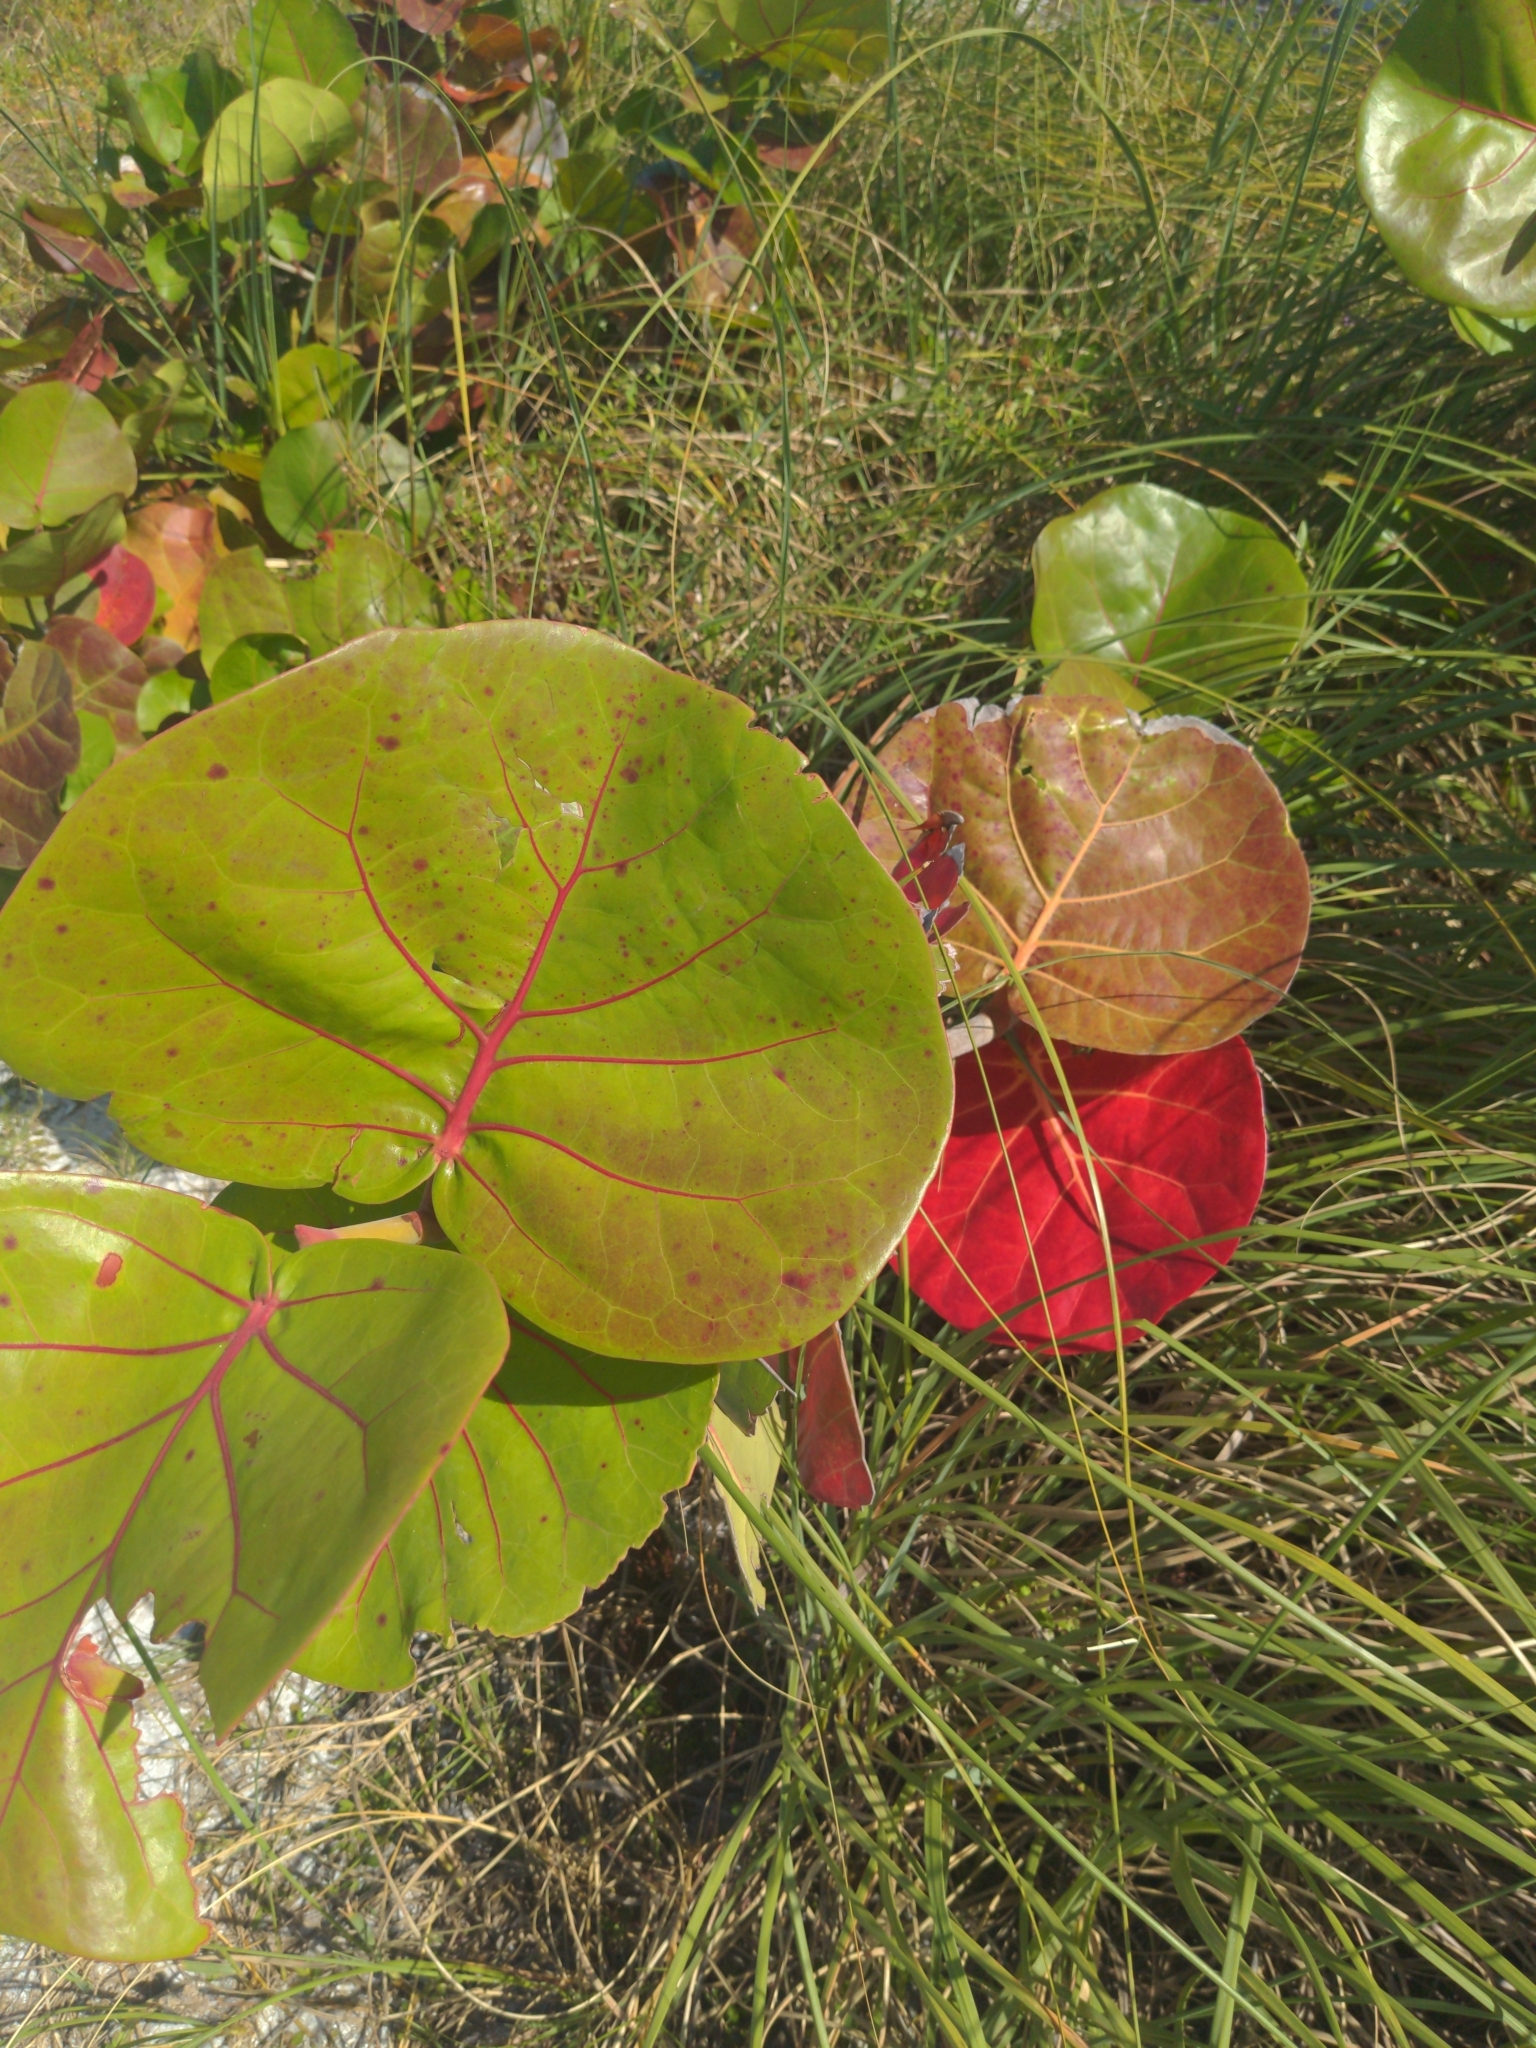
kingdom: Plantae
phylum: Tracheophyta
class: Magnoliopsida
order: Caryophyllales
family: Polygonaceae
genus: Coccoloba
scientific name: Coccoloba uvifera
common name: Seagrape
